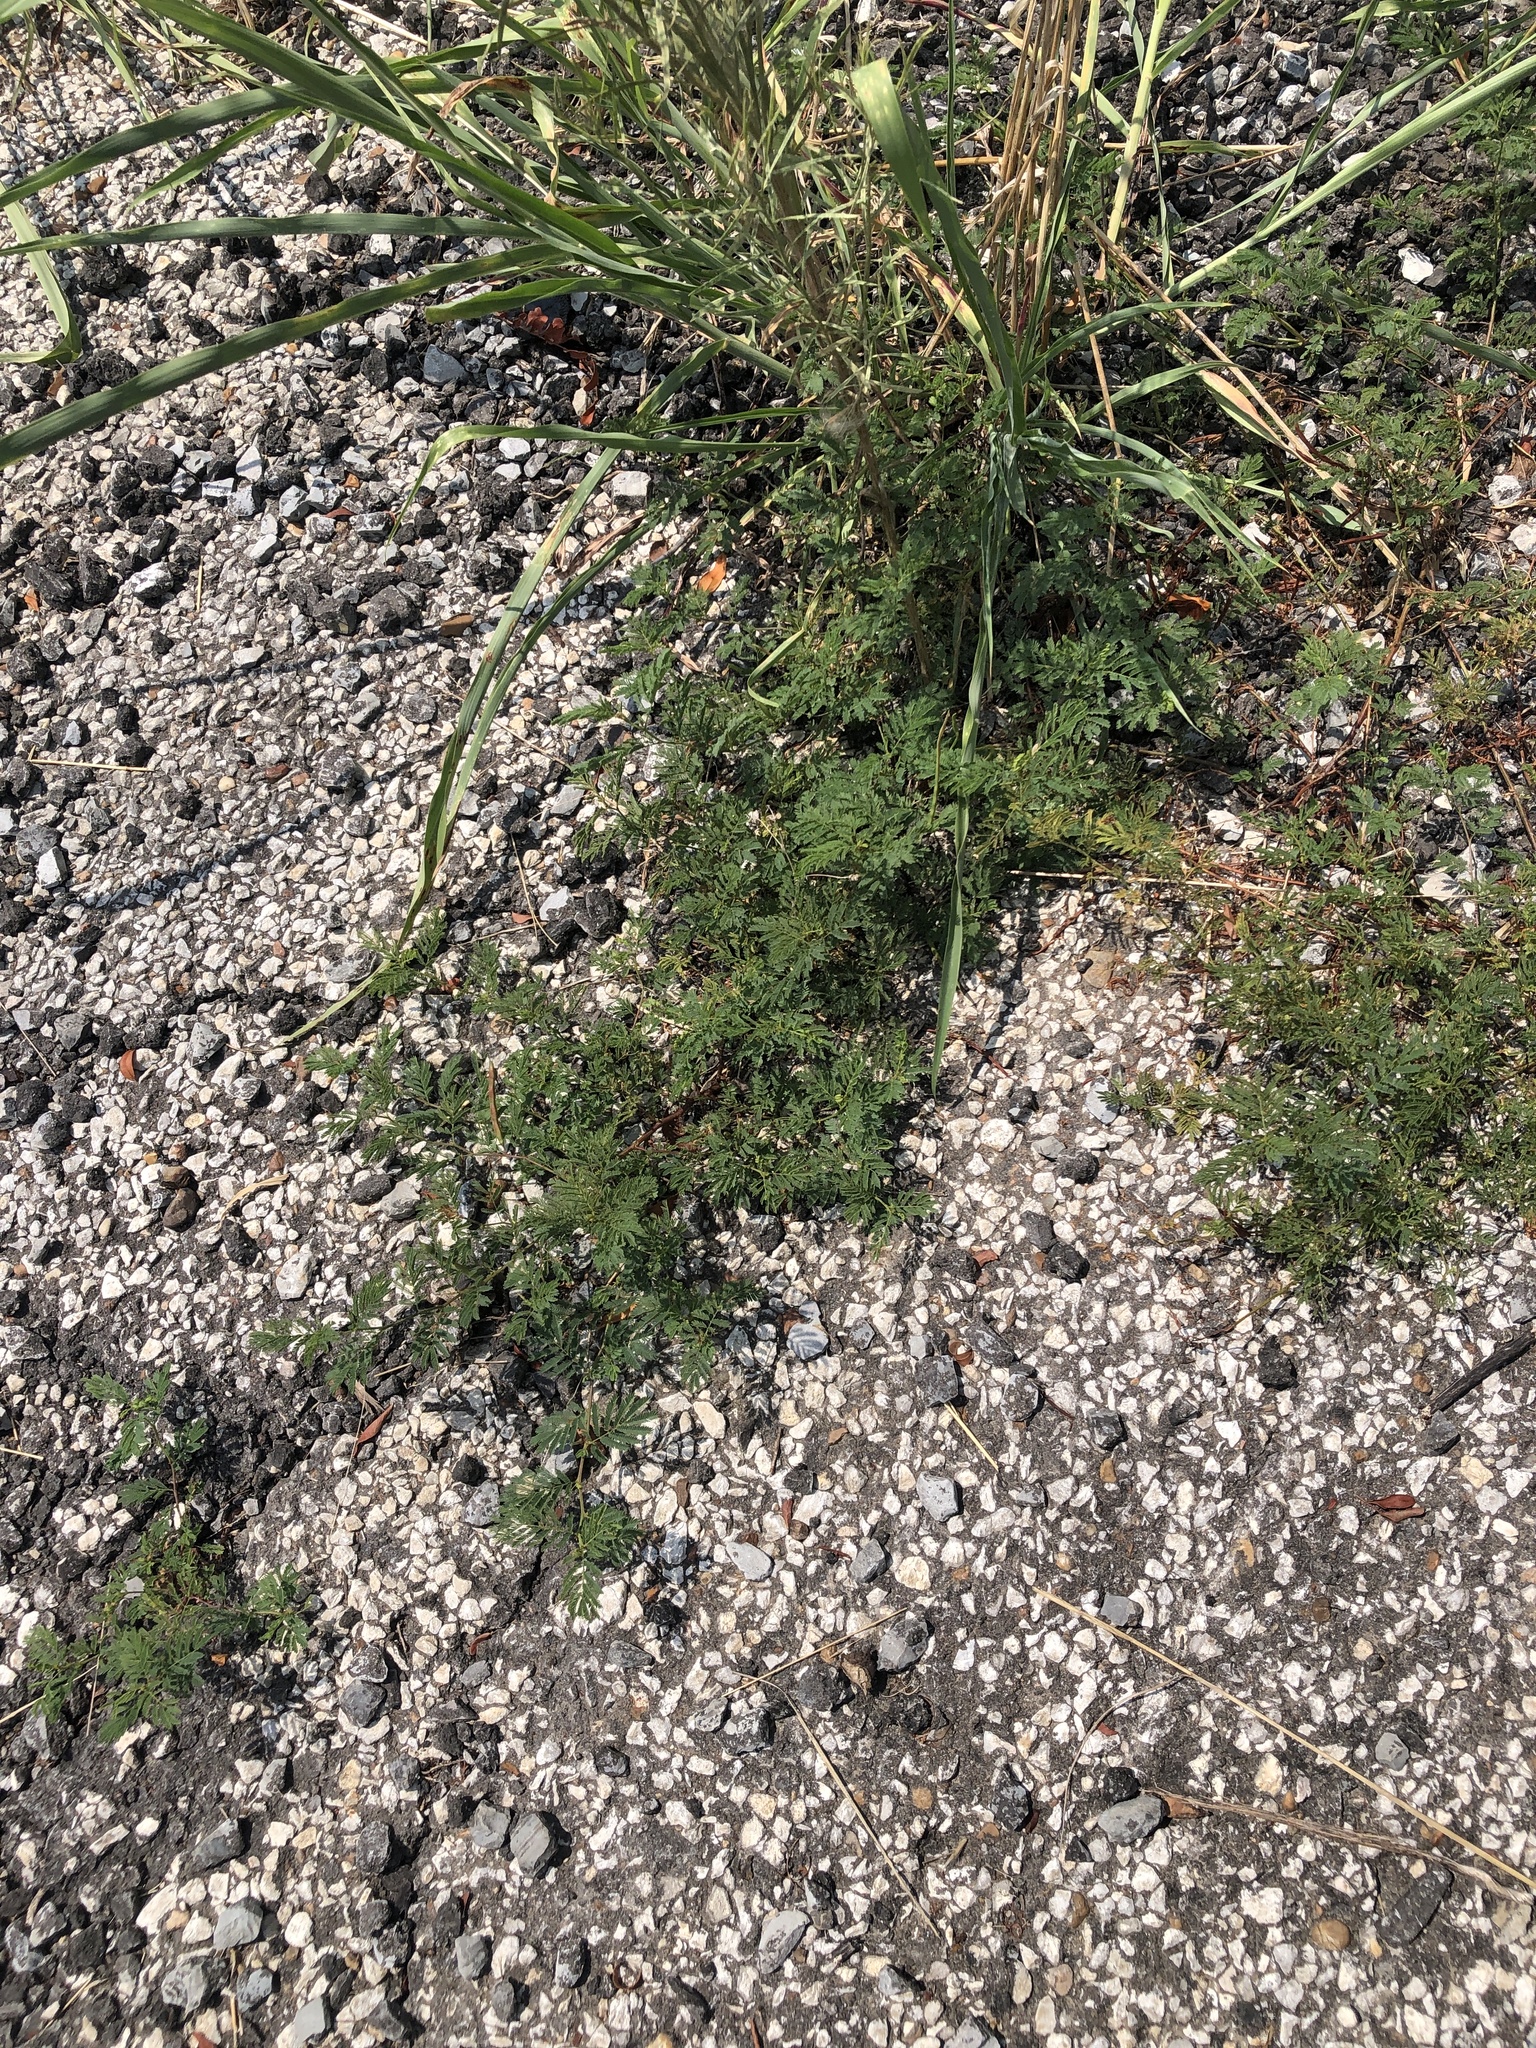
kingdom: Plantae
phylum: Tracheophyta
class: Magnoliopsida
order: Fabales
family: Fabaceae
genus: Desmanthus
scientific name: Desmanthus leptolobus
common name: Prairie-mimosa
